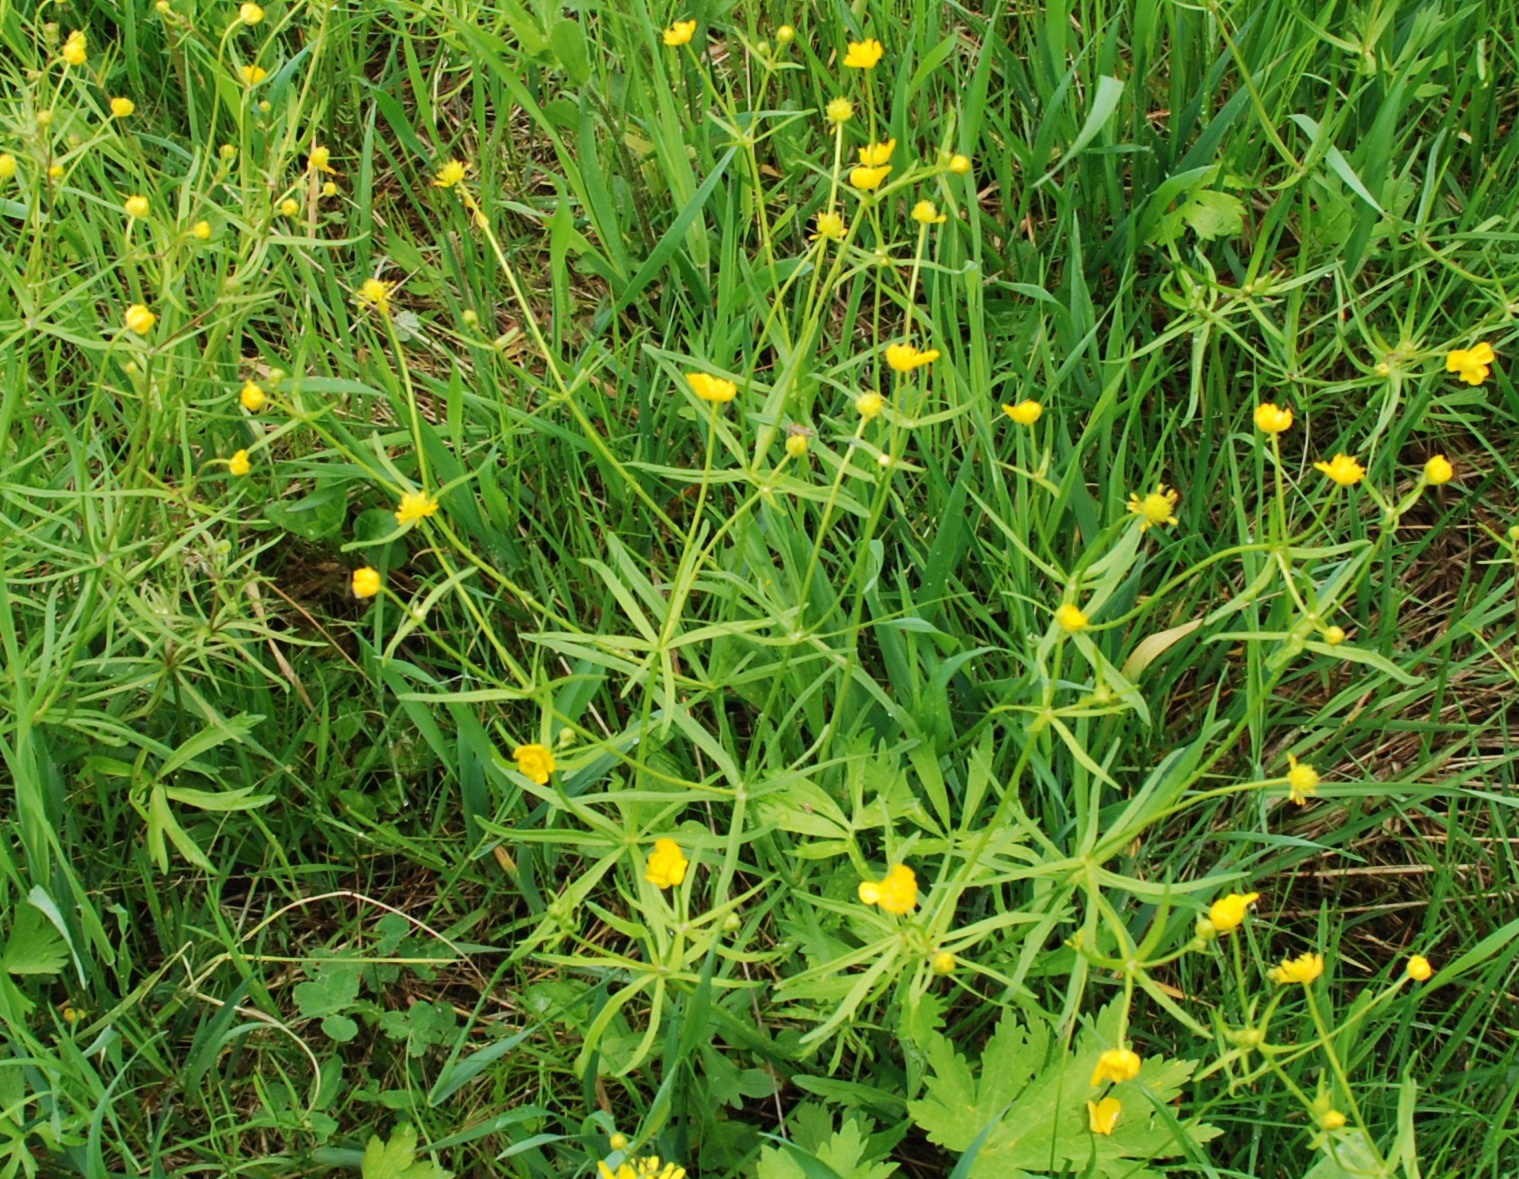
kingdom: Plantae
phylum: Tracheophyta
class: Magnoliopsida
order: Ranunculales
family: Ranunculaceae
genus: Ranunculus
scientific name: Ranunculus auricomus
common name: Goldilocks buttercup
